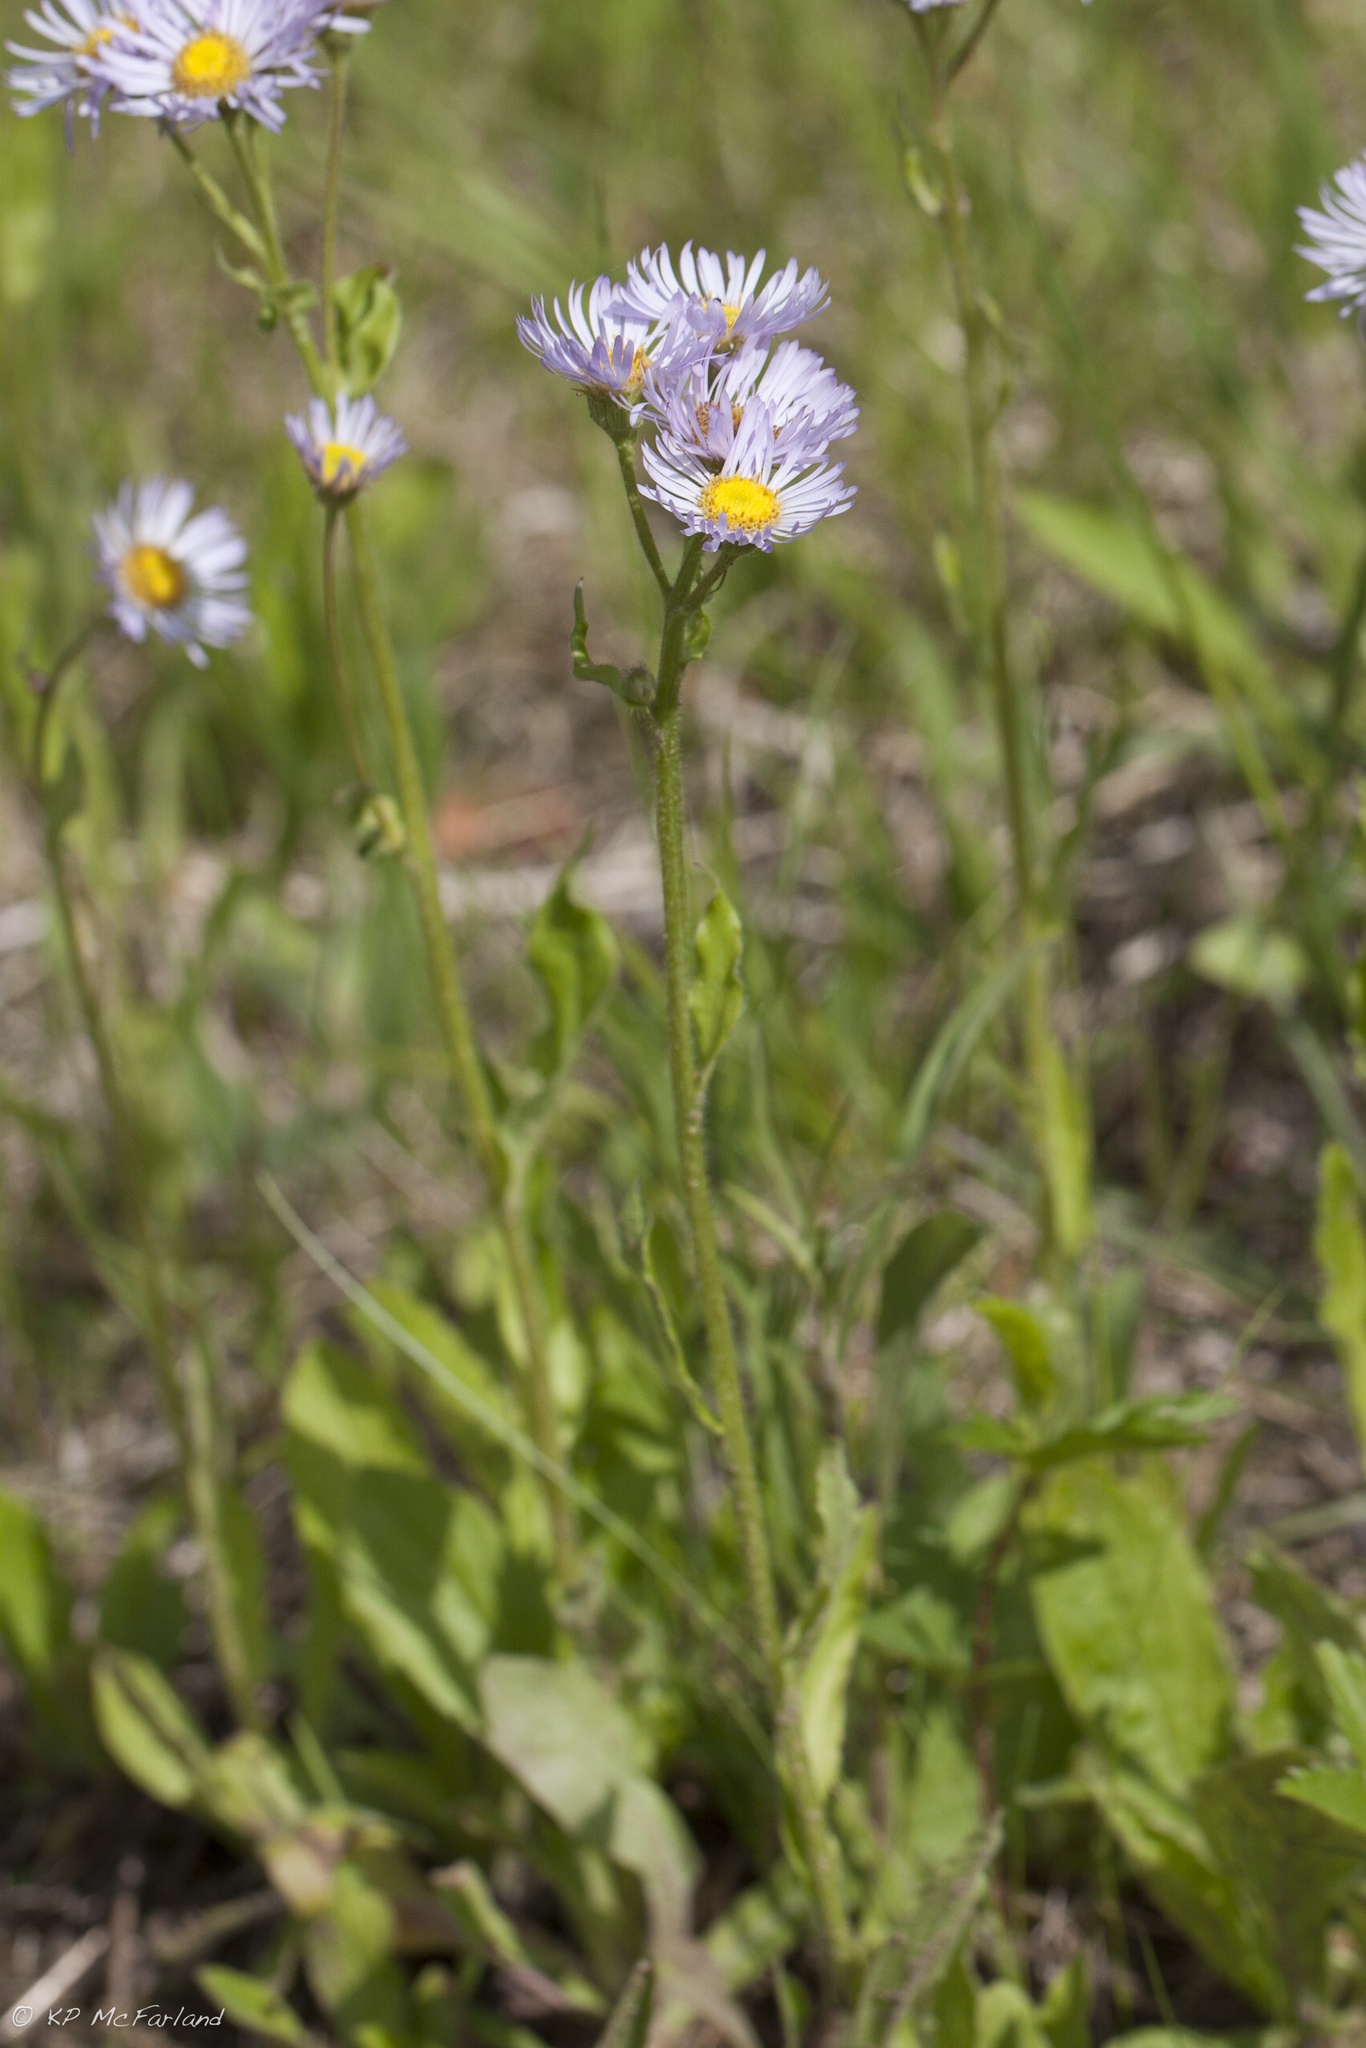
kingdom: Plantae
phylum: Tracheophyta
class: Magnoliopsida
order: Asterales
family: Asteraceae
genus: Erigeron
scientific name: Erigeron pulchellus
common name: Hairy fleabane
